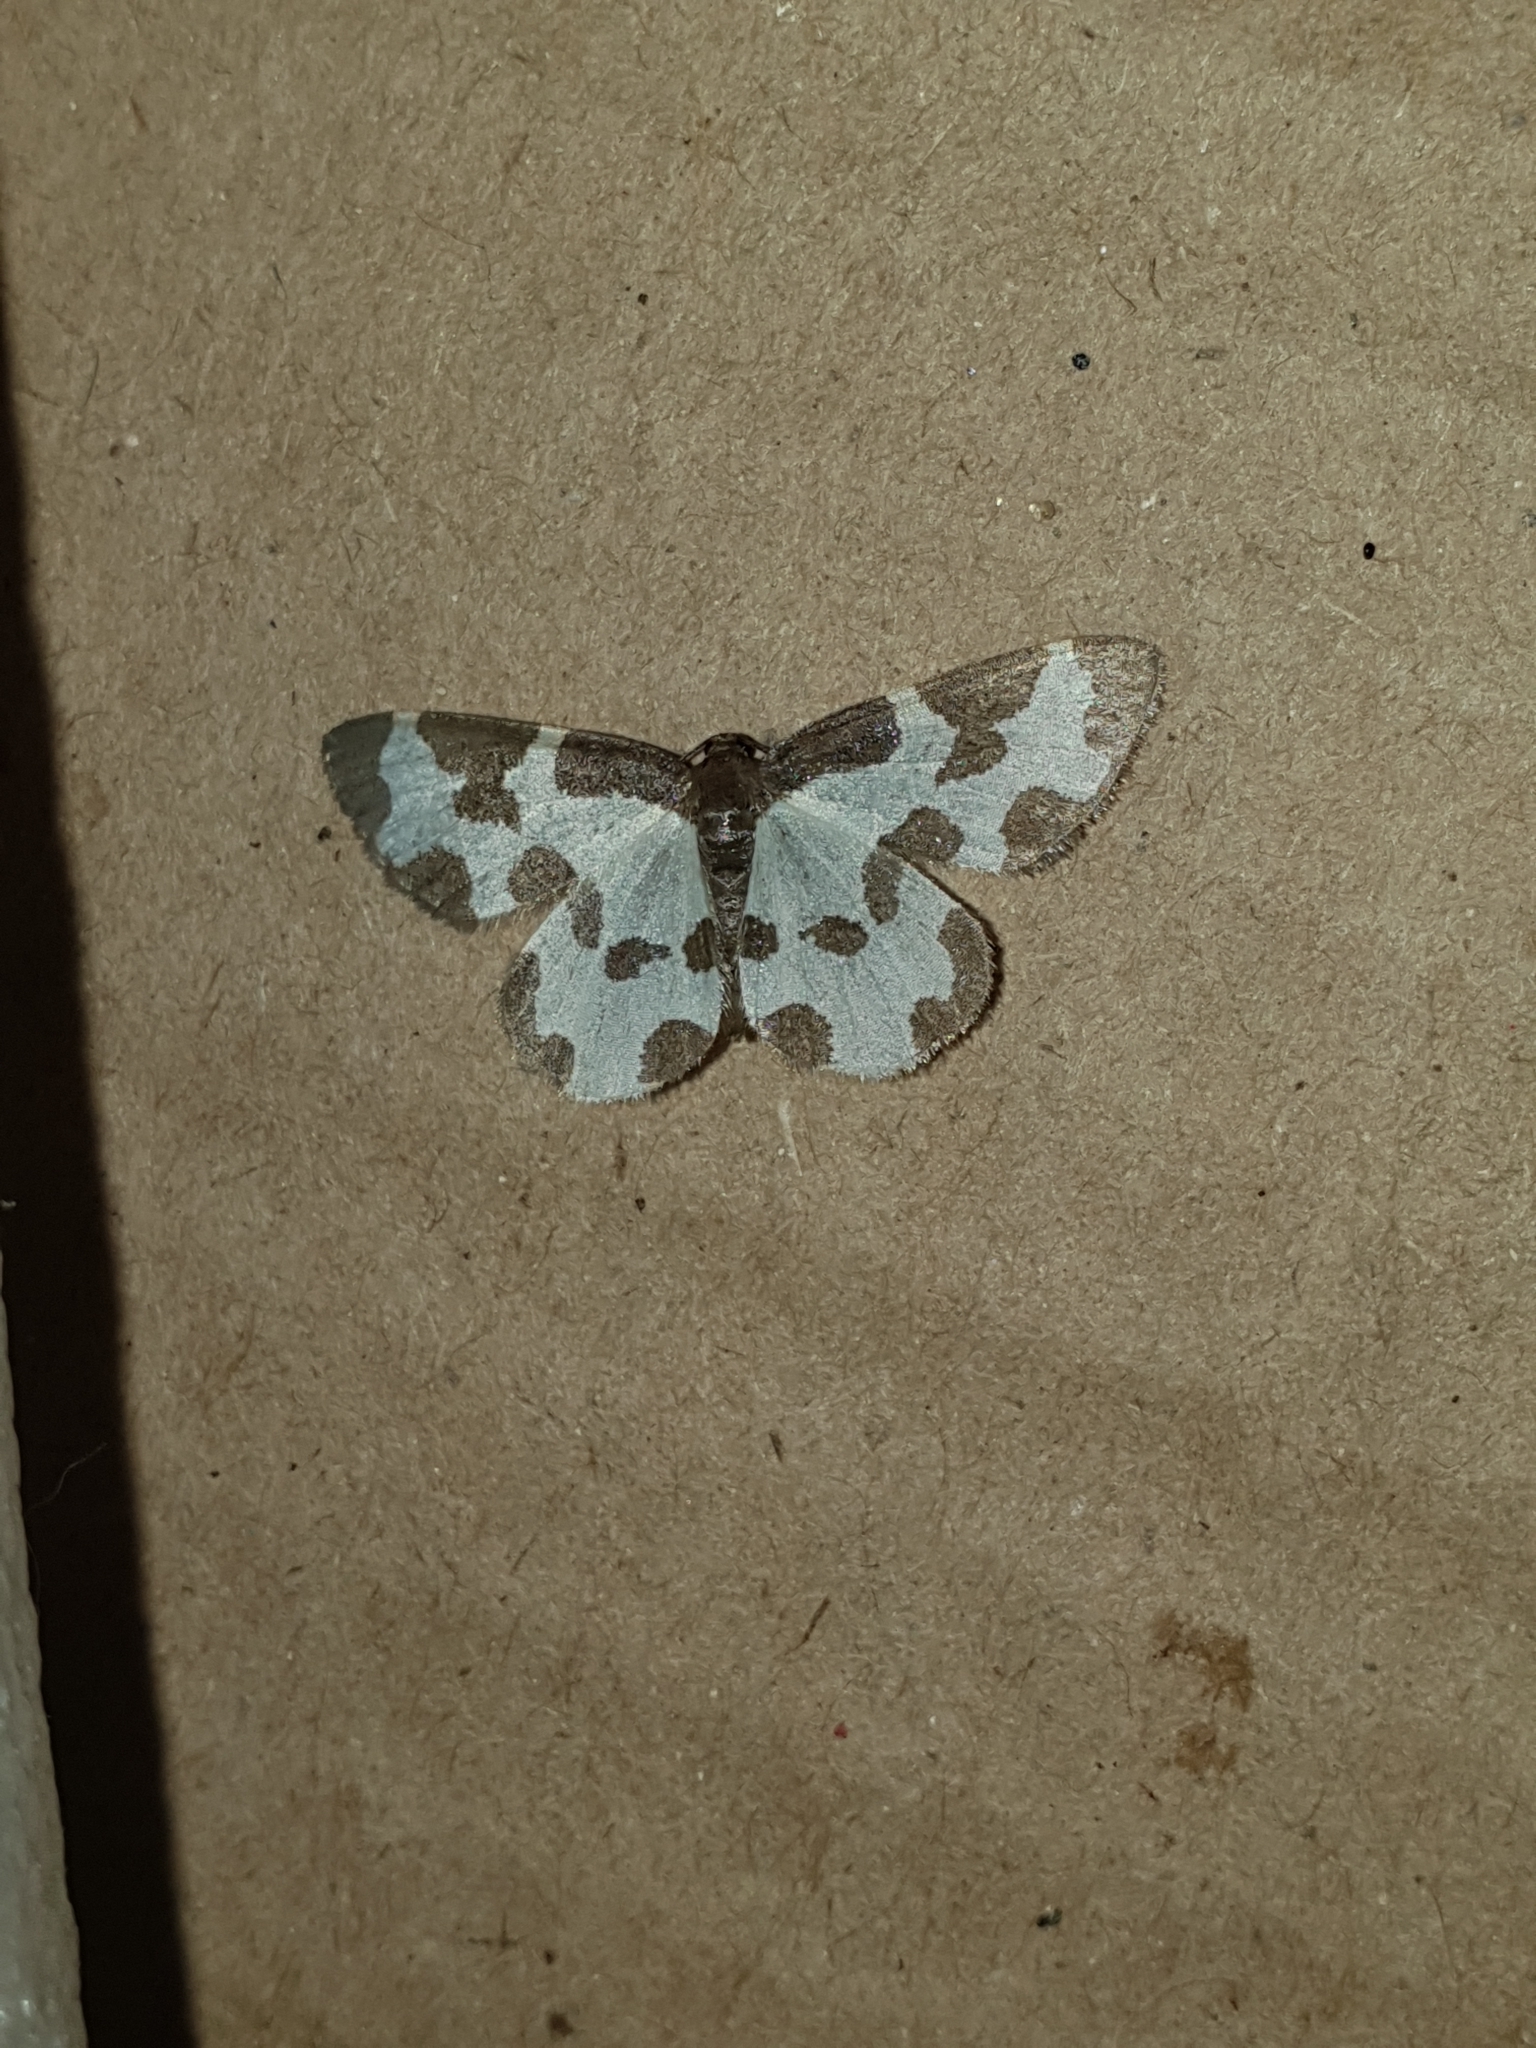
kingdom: Animalia
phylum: Arthropoda
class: Insecta
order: Lepidoptera
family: Geometridae
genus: Lomaspilis
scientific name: Lomaspilis marginata
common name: Clouded border
